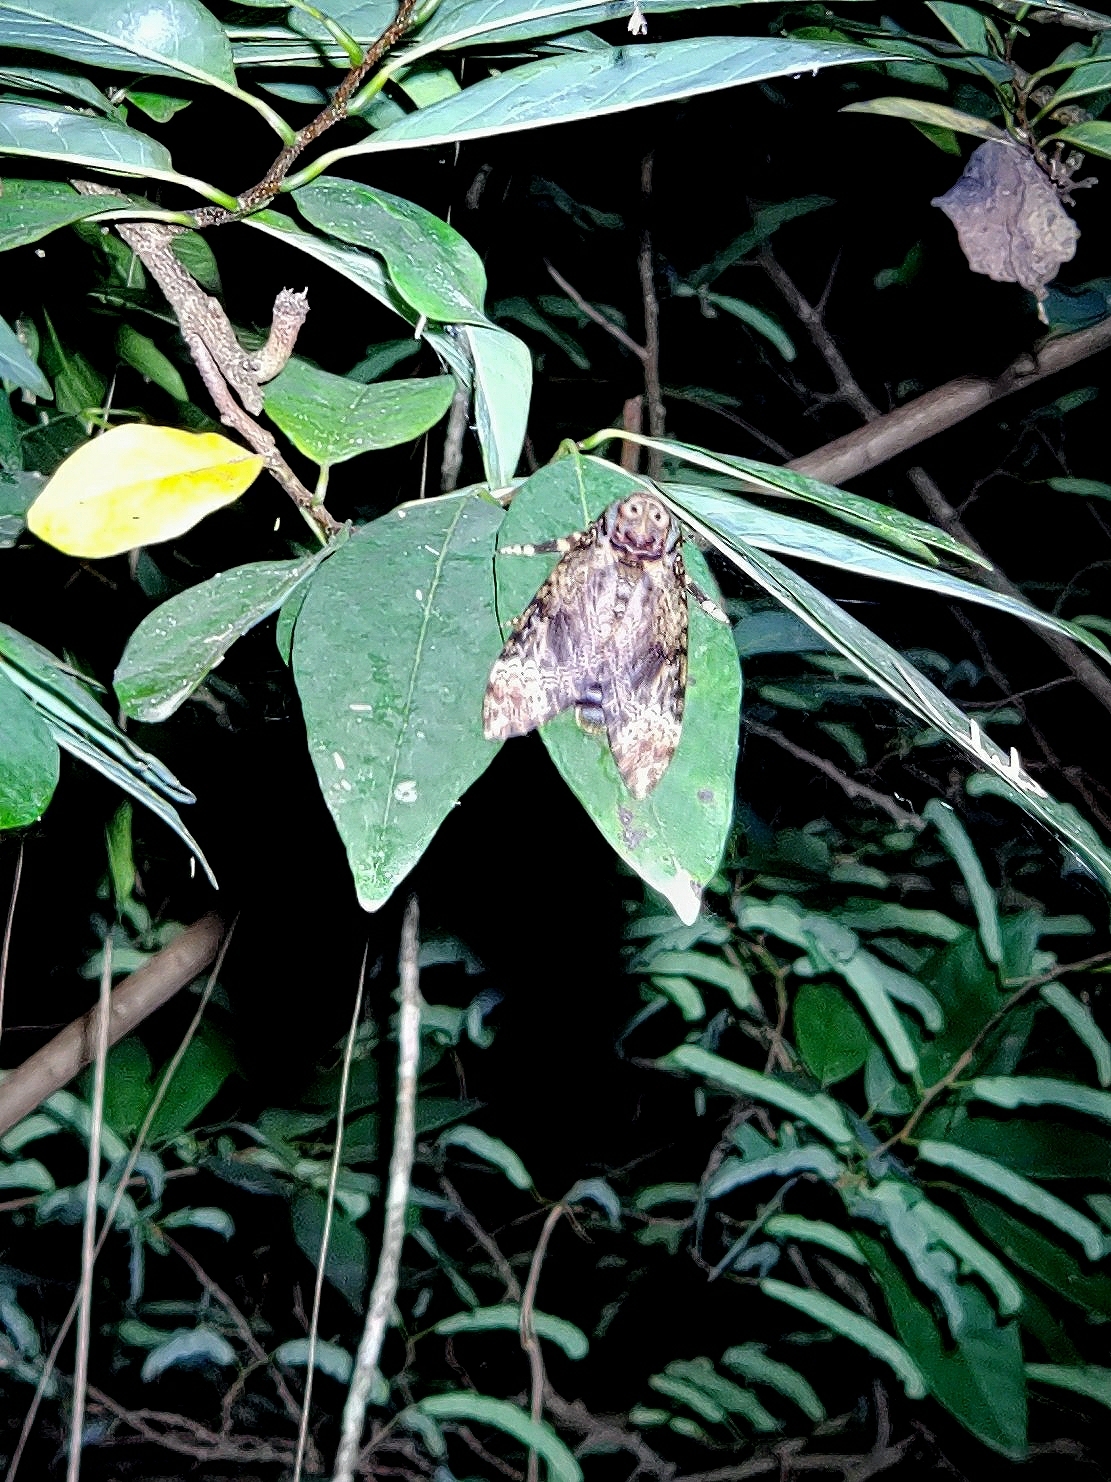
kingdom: Animalia
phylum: Arthropoda
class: Insecta
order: Lepidoptera
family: Sphingidae
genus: Acherontia
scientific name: Acherontia lachesis
